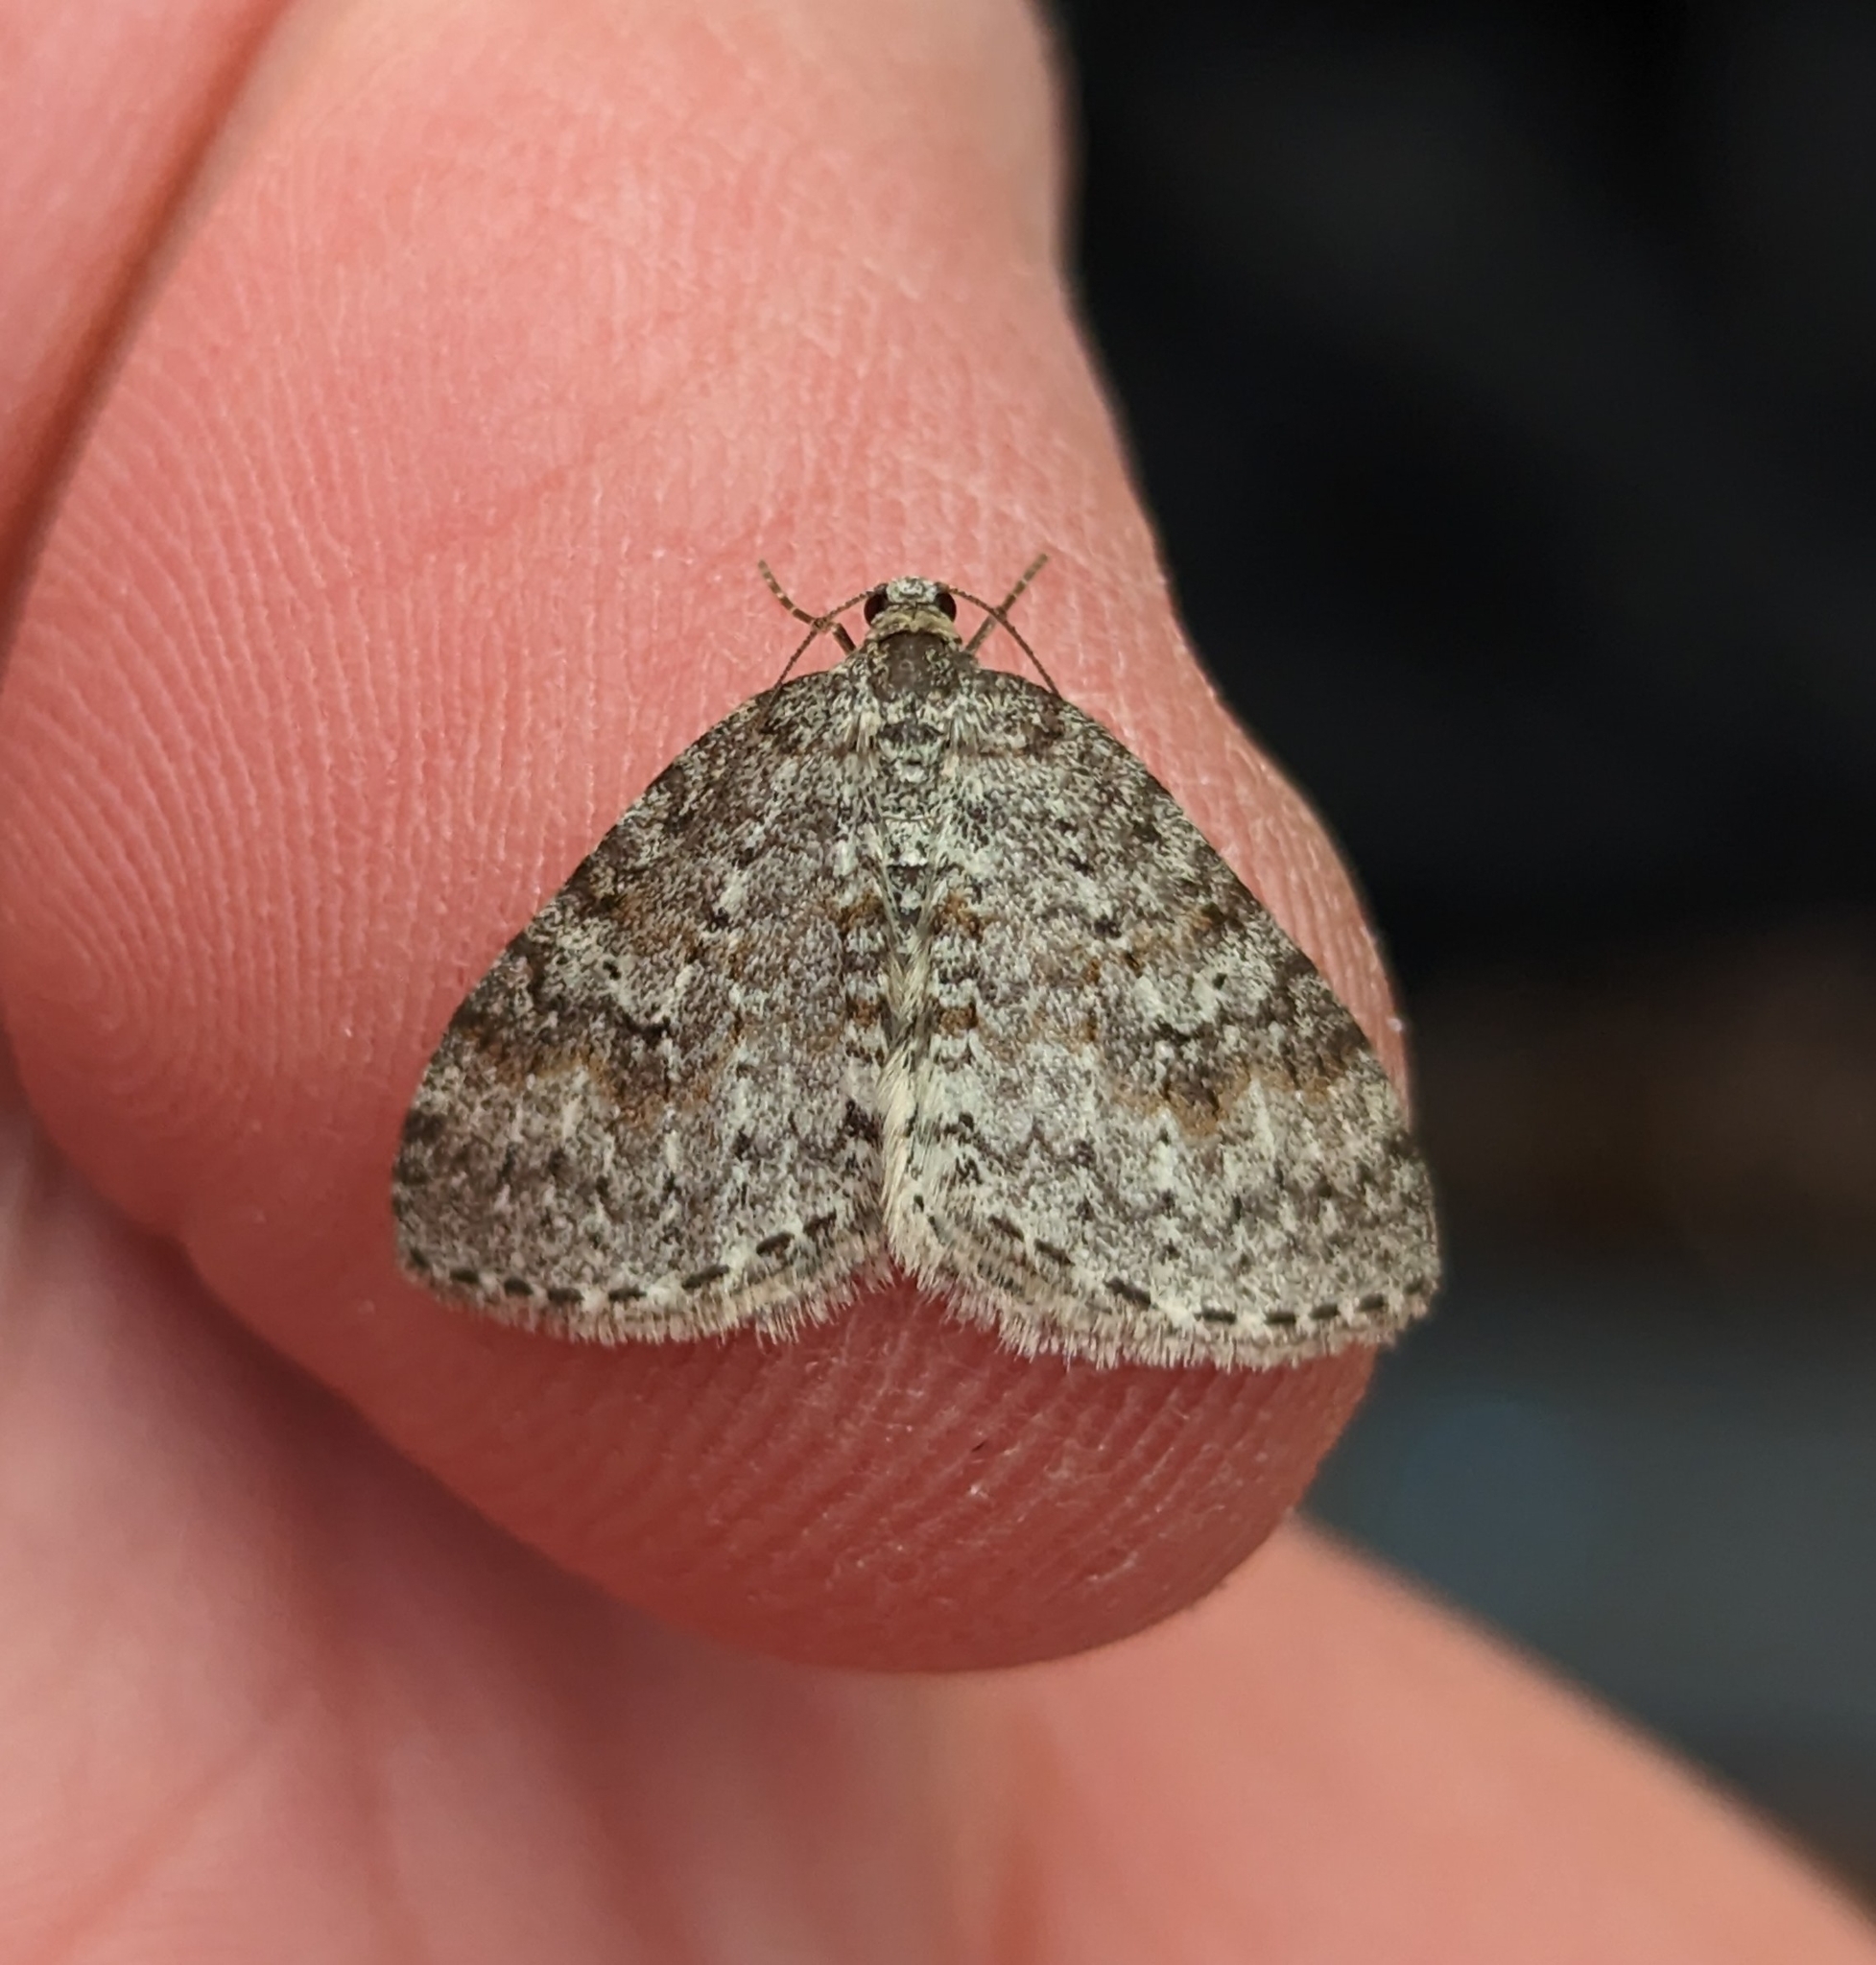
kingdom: Animalia
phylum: Arthropoda
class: Insecta
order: Lepidoptera
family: Geometridae
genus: Venusia
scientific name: Venusia pearsalli
